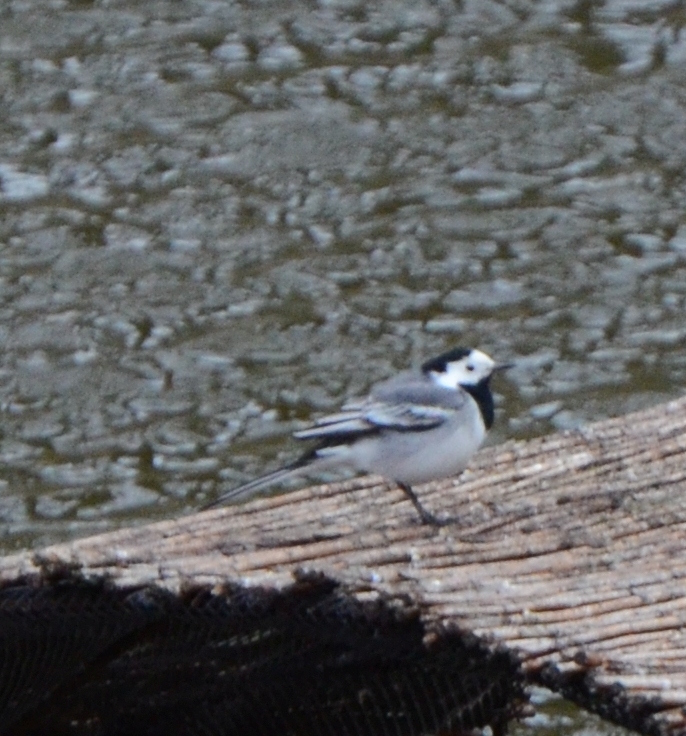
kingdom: Animalia
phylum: Chordata
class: Aves
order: Passeriformes
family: Motacillidae
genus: Motacilla
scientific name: Motacilla alba
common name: White wagtail
